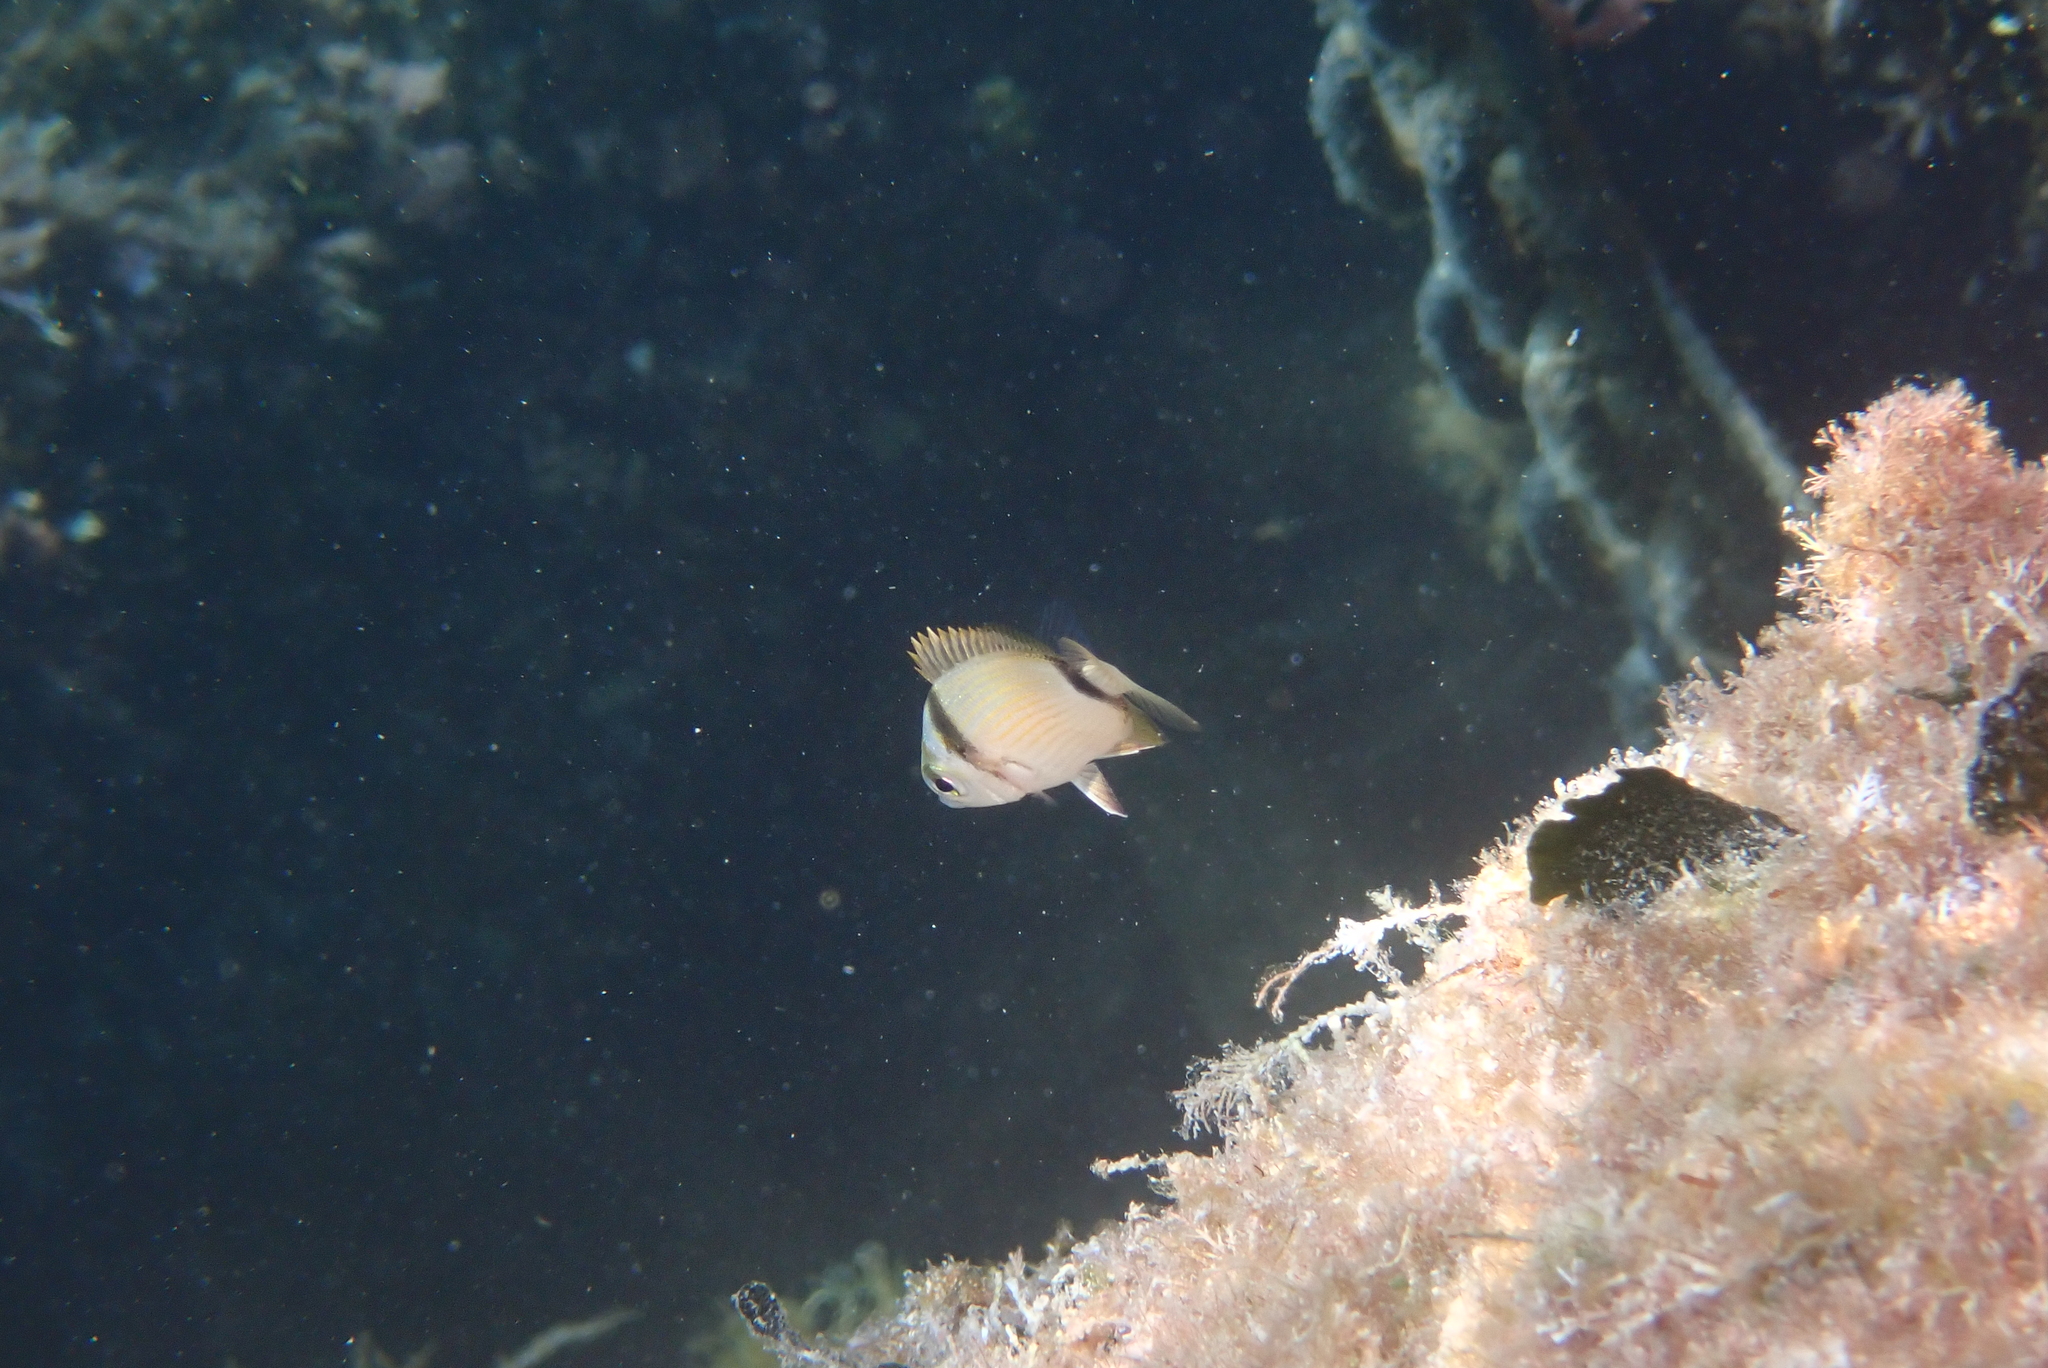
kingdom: Animalia
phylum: Chordata
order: Perciformes
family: Sparidae
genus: Diplodus
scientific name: Diplodus vulgaris
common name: Common two-banded seabream
